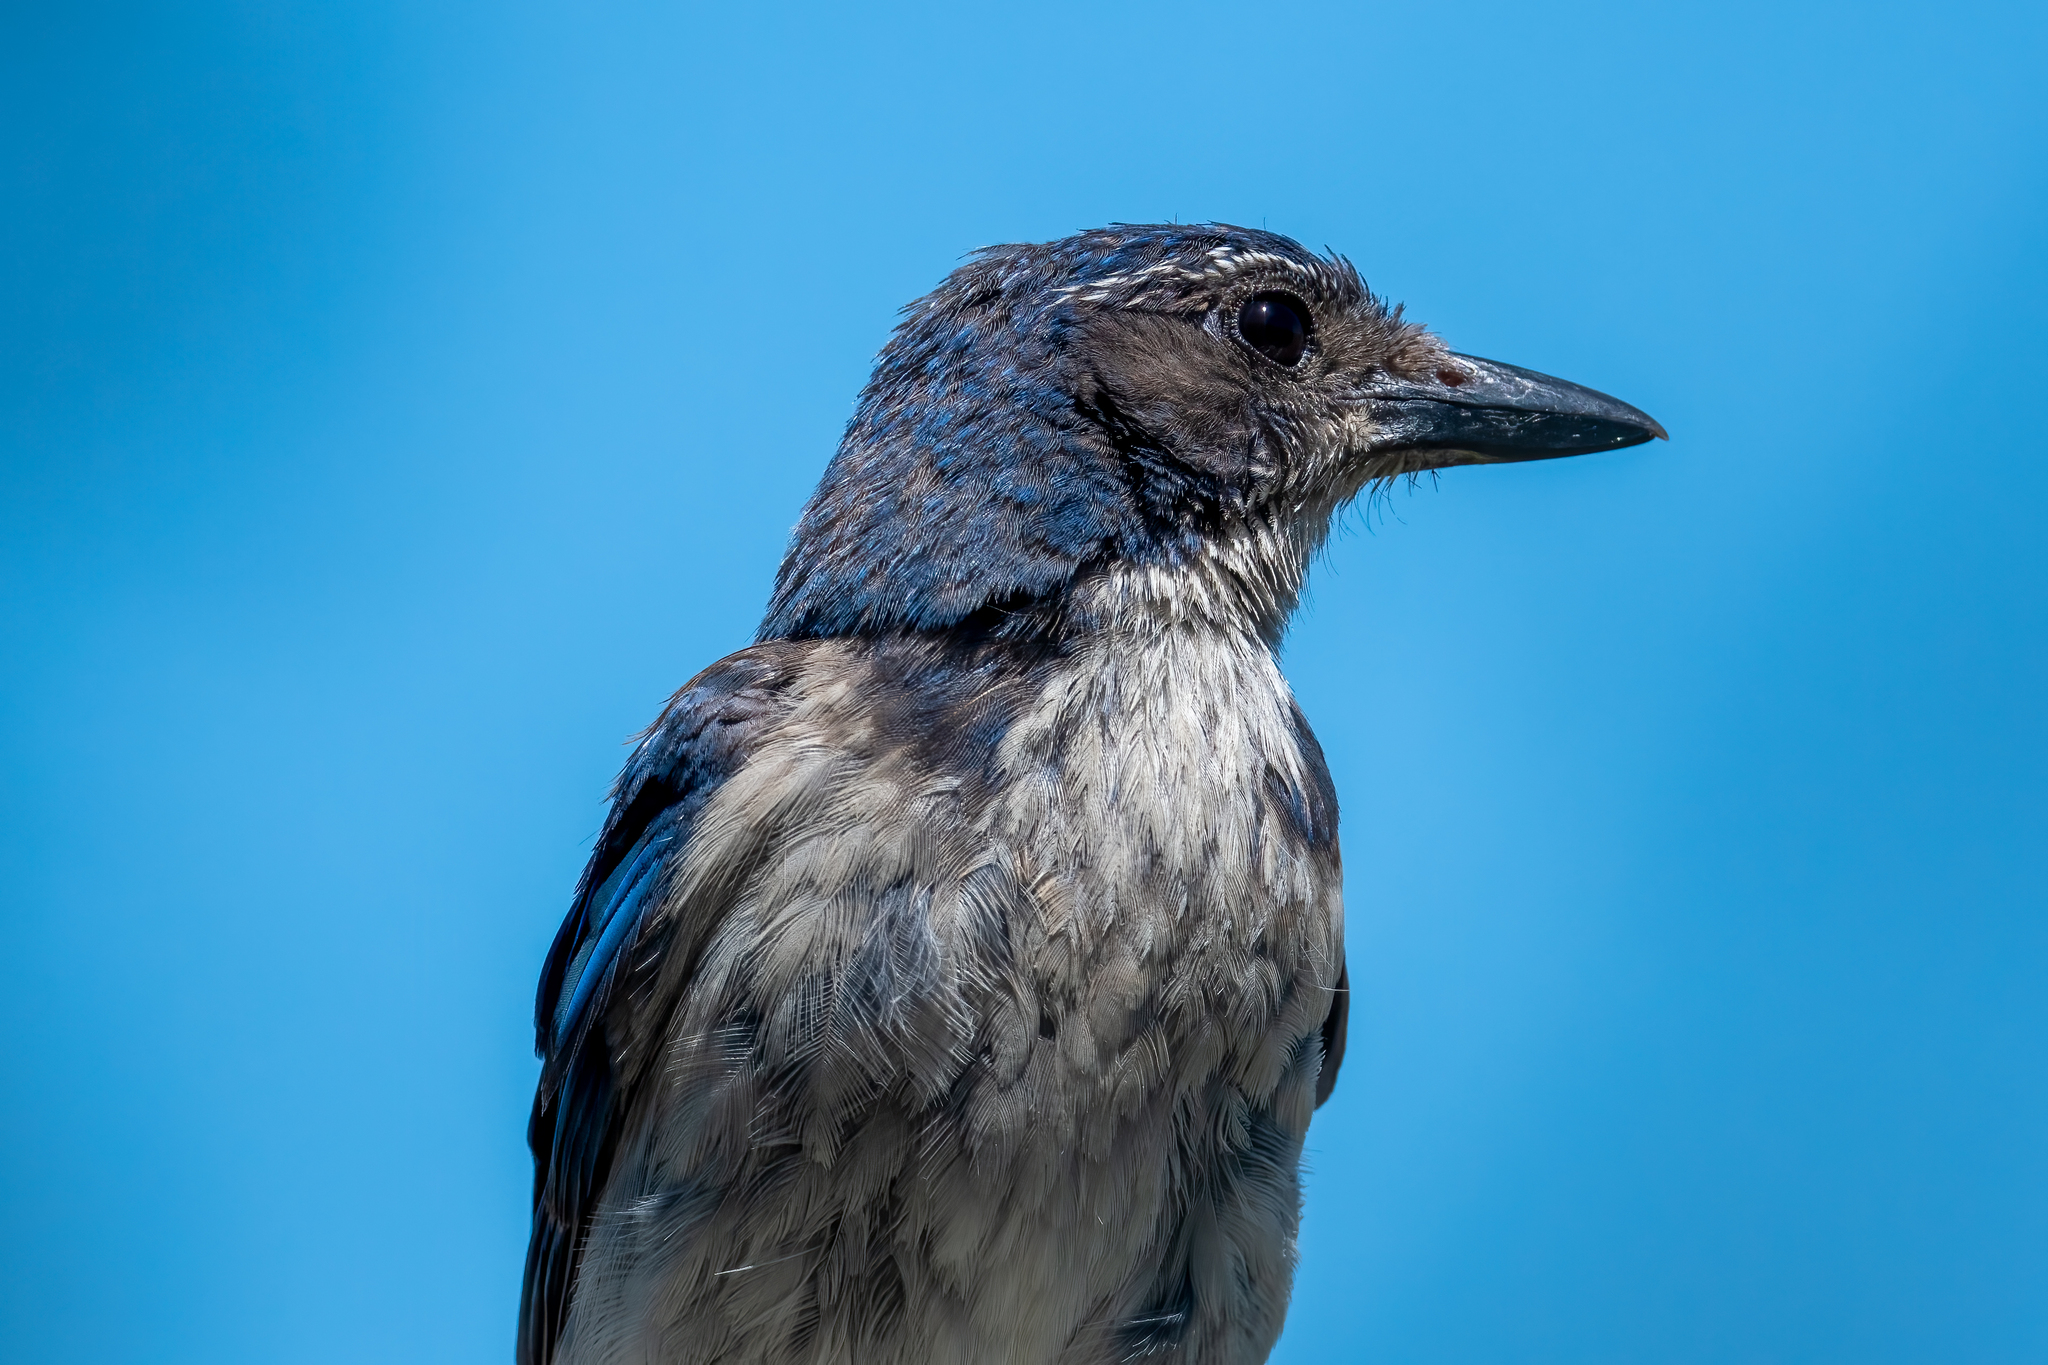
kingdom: Animalia
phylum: Chordata
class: Aves
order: Passeriformes
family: Corvidae
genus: Aphelocoma
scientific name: Aphelocoma californica
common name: California scrub-jay
